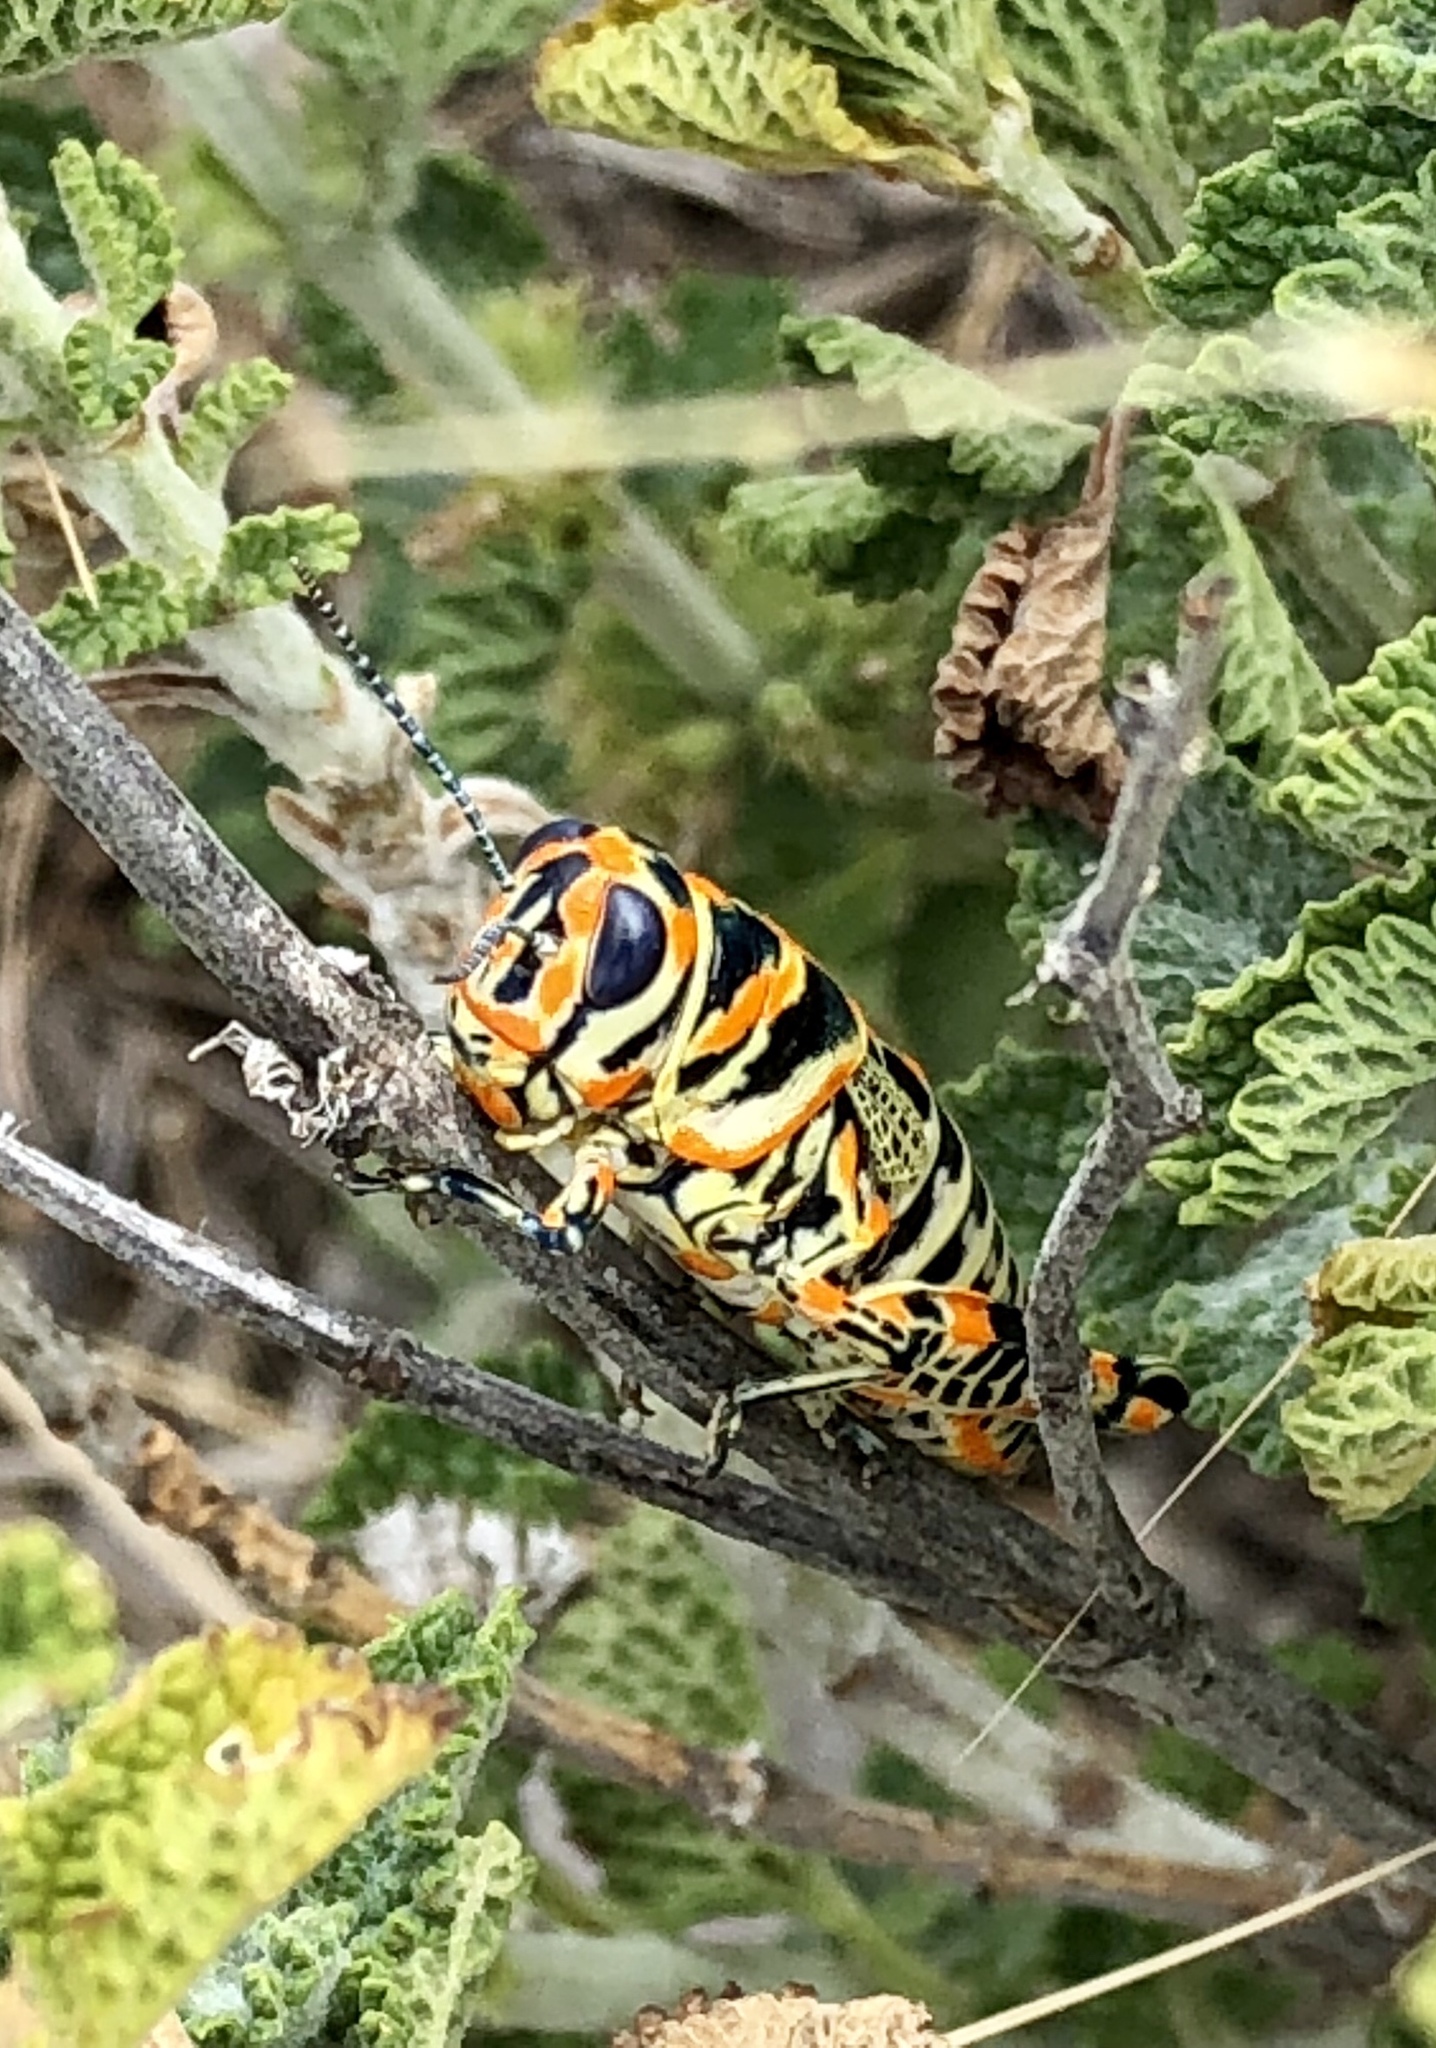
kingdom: Animalia
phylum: Arthropoda
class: Insecta
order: Orthoptera
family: Acrididae
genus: Dactylotum
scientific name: Dactylotum bicolor
